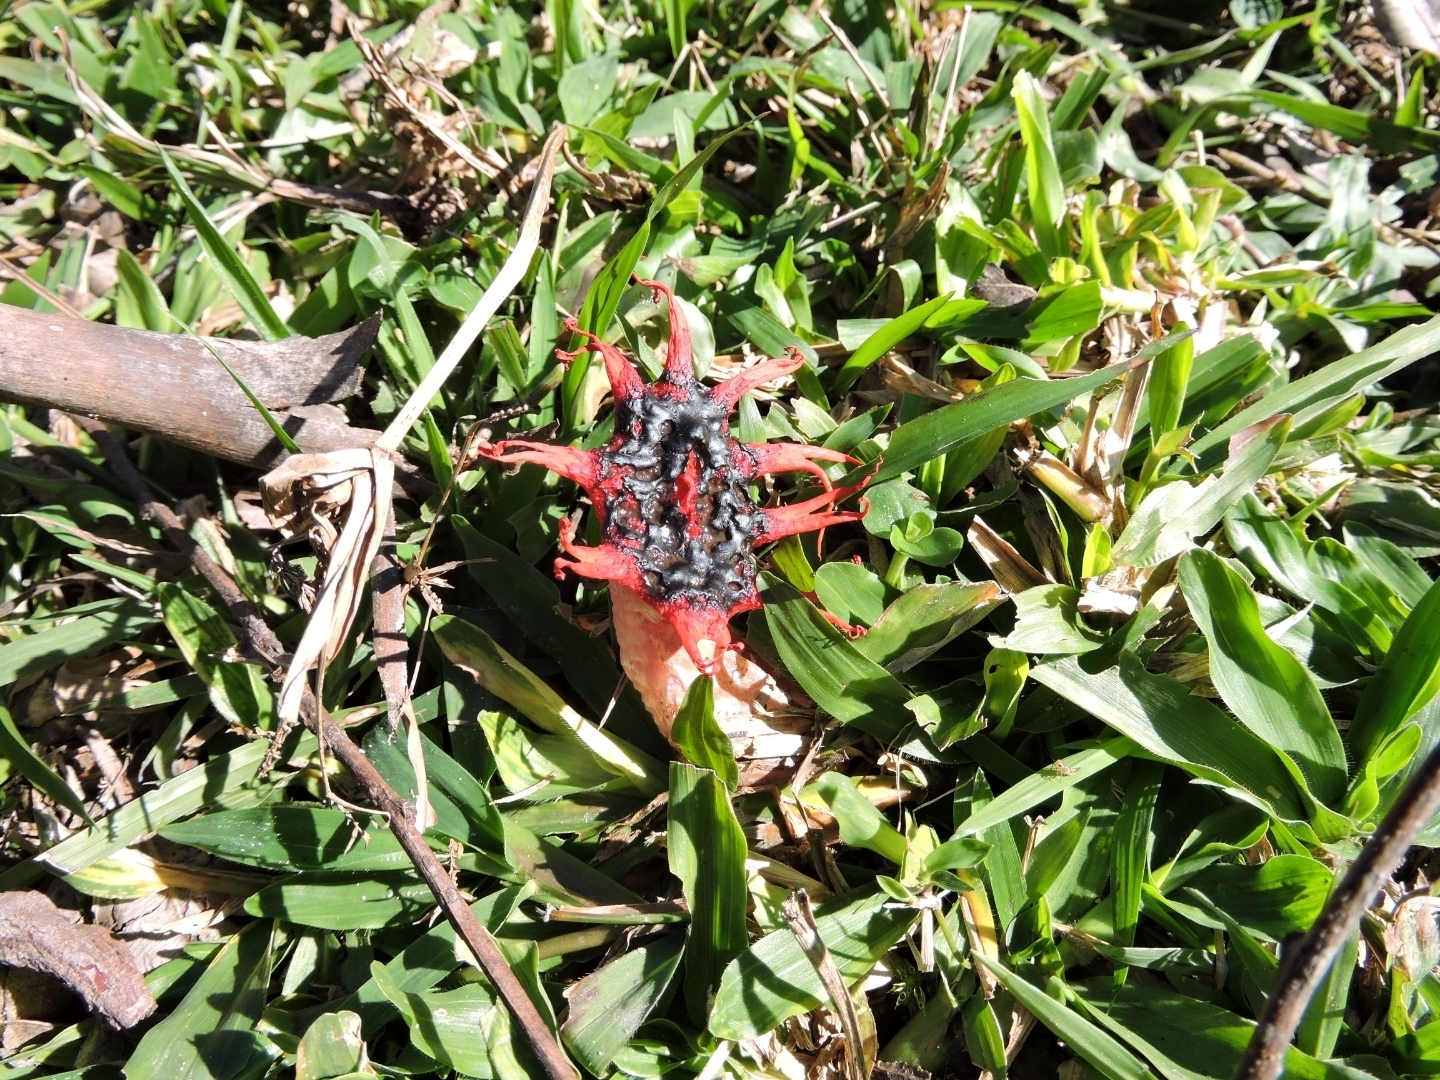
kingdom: Fungi
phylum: Basidiomycota
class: Agaricomycetes
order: Phallales
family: Phallaceae
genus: Aseroe
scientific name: Aseroe rubra
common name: Starfish fungus
